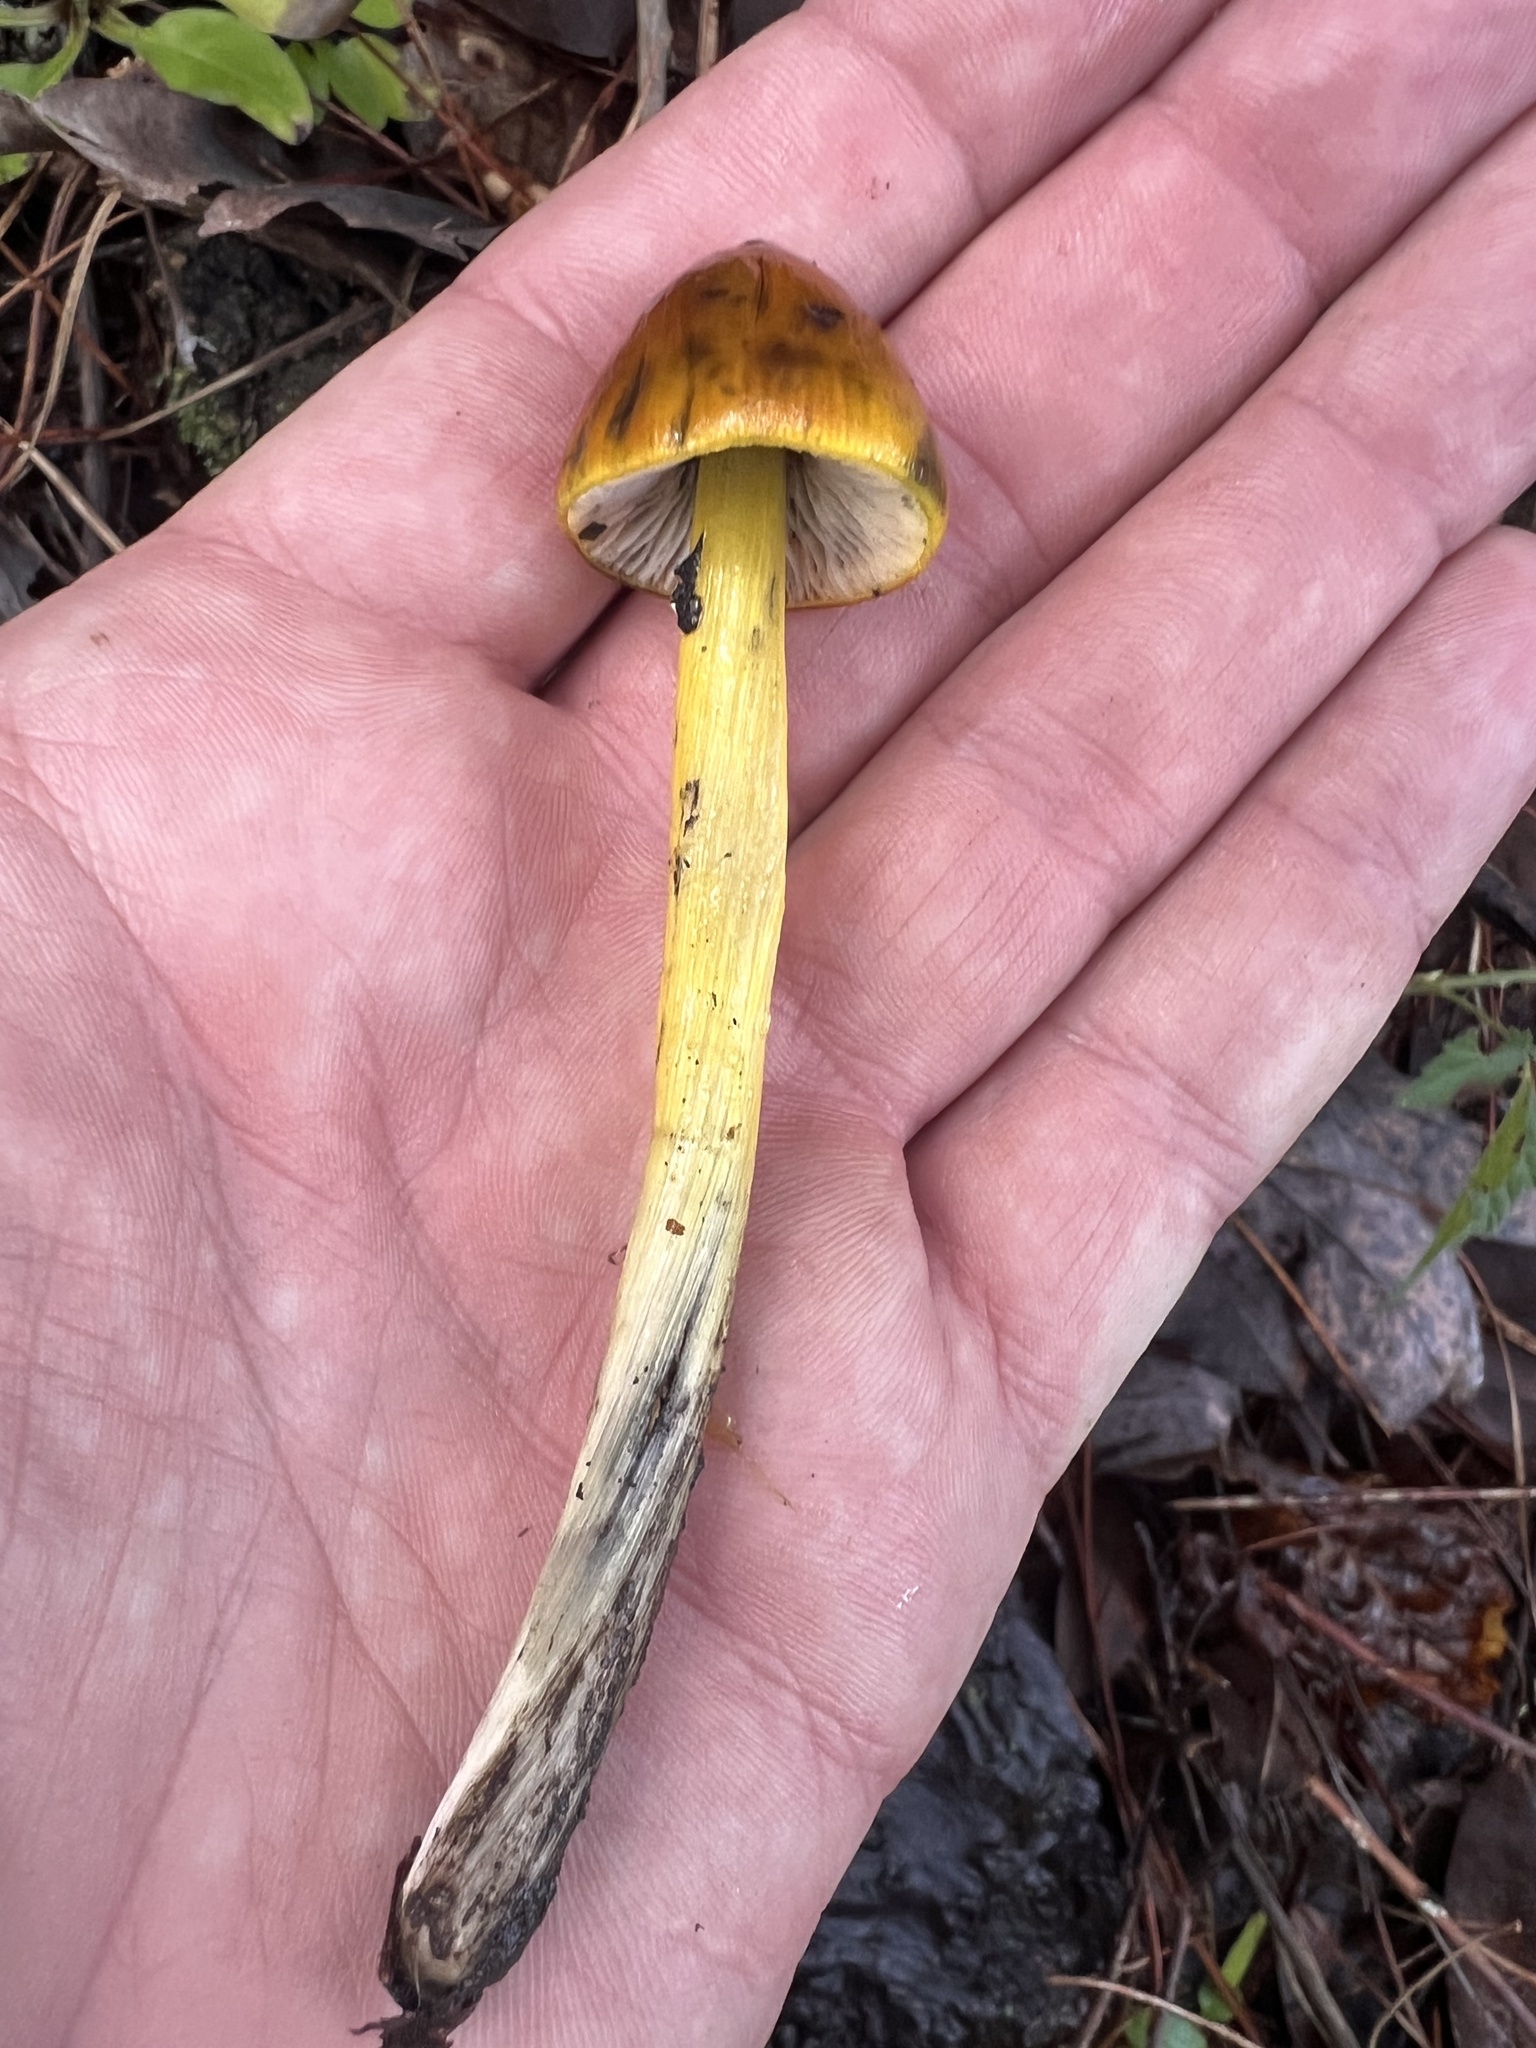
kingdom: Fungi
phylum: Basidiomycota
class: Agaricomycetes
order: Agaricales
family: Hygrophoraceae
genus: Hygrocybe
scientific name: Hygrocybe singeri
